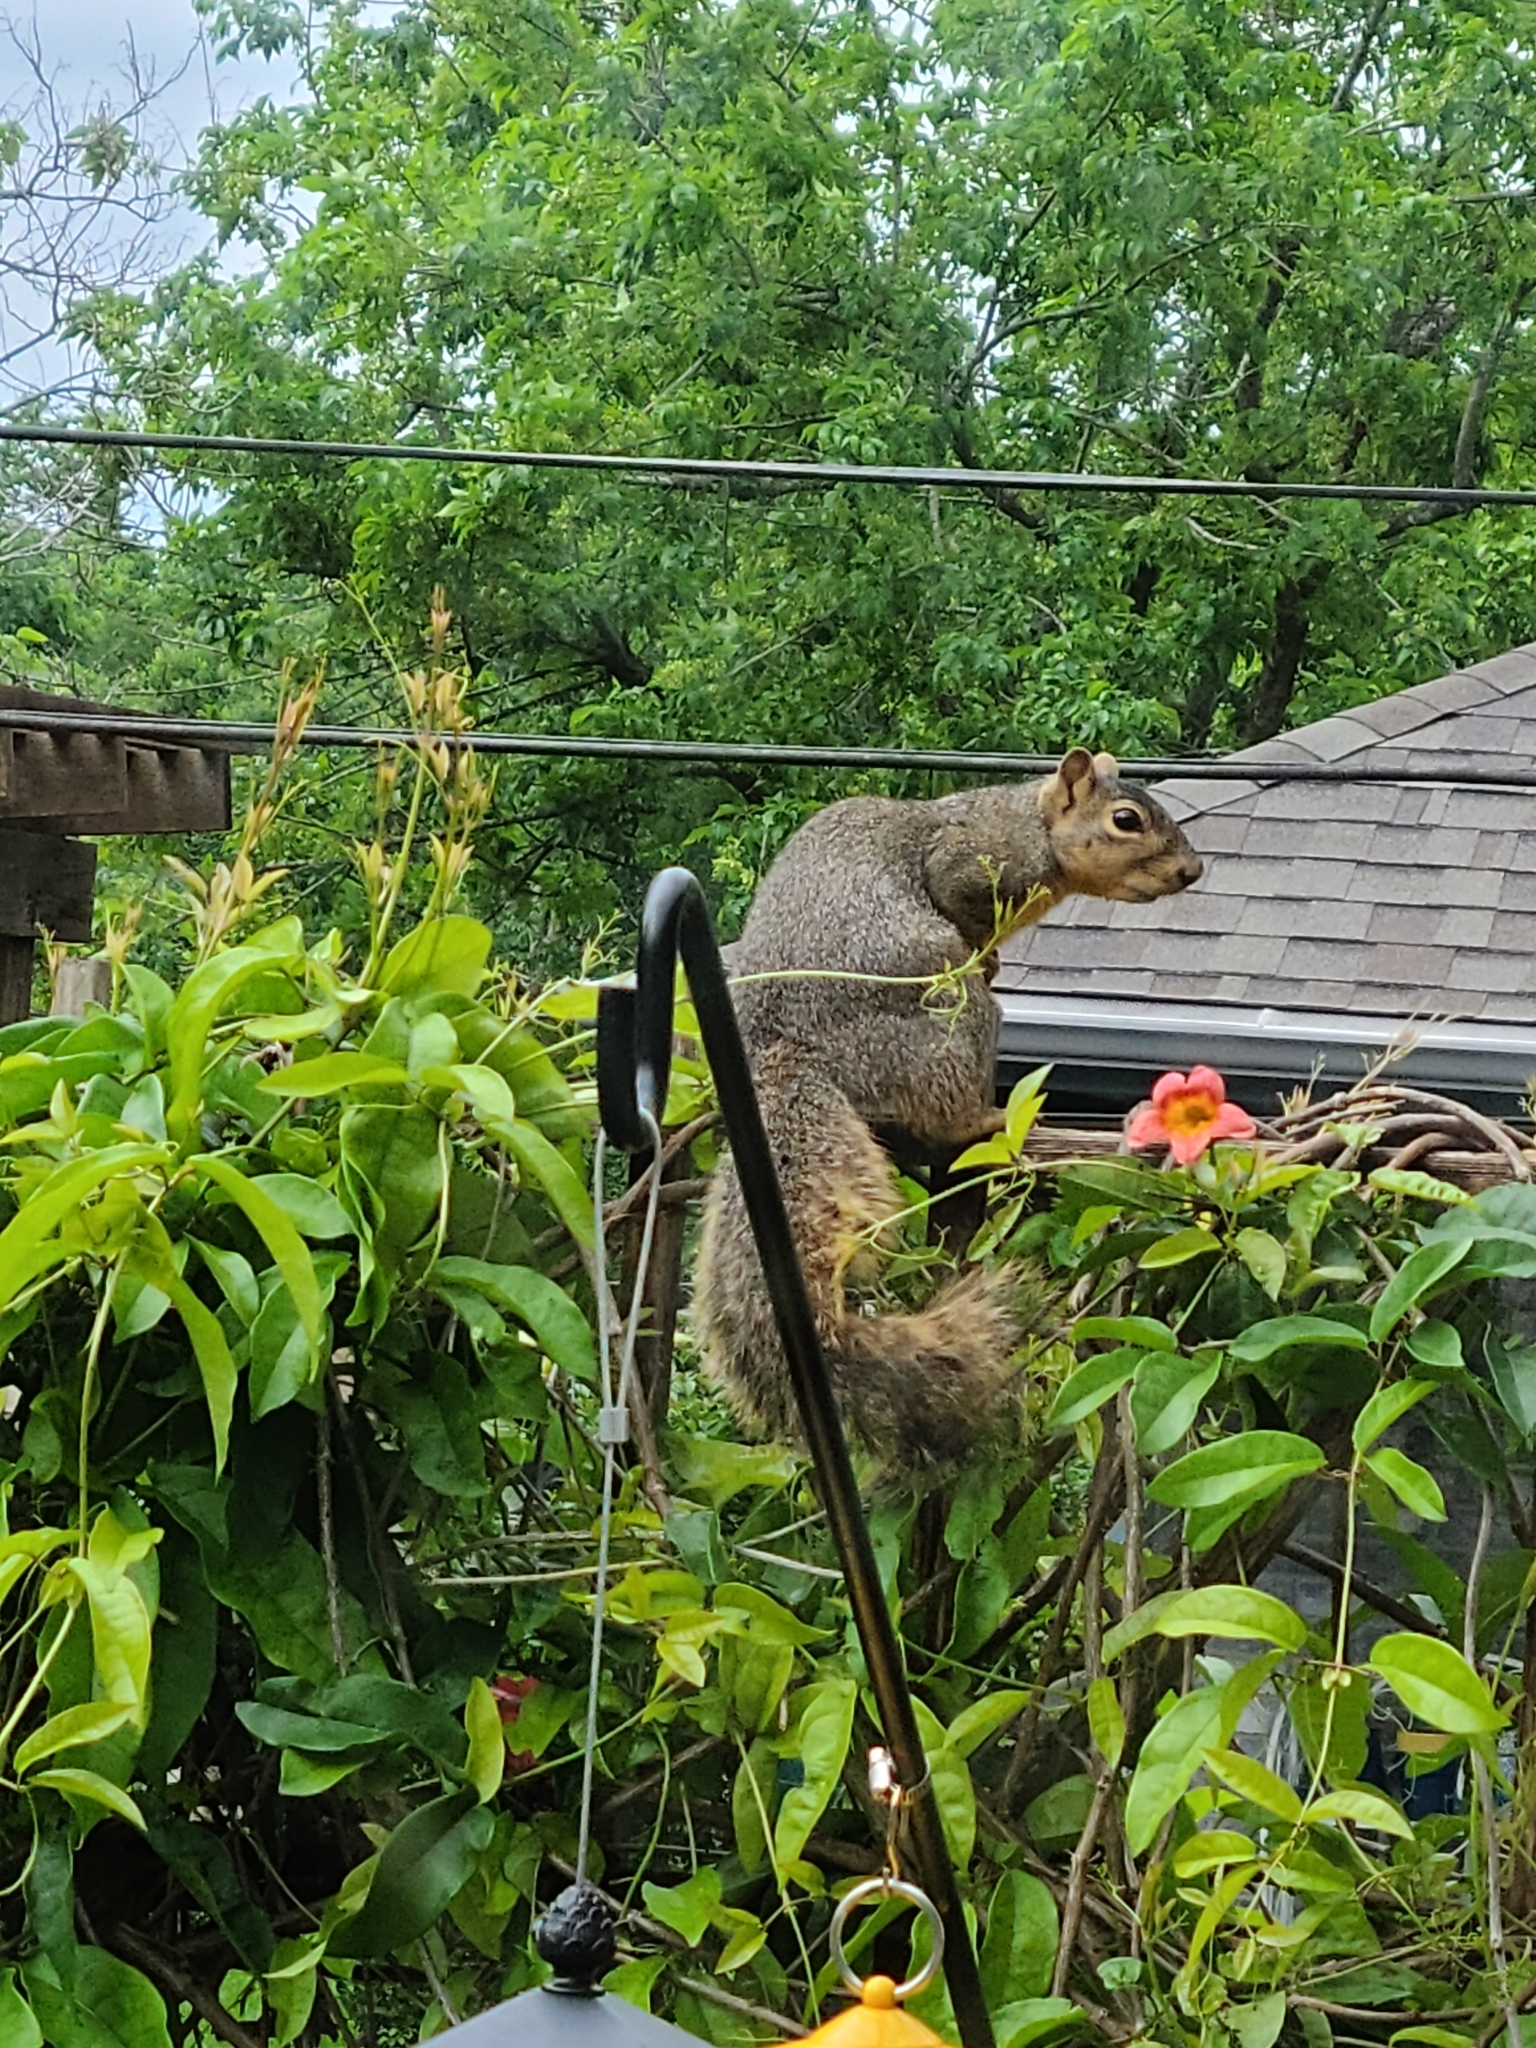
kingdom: Animalia
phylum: Chordata
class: Mammalia
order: Rodentia
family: Sciuridae
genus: Sciurus
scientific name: Sciurus niger
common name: Fox squirrel
